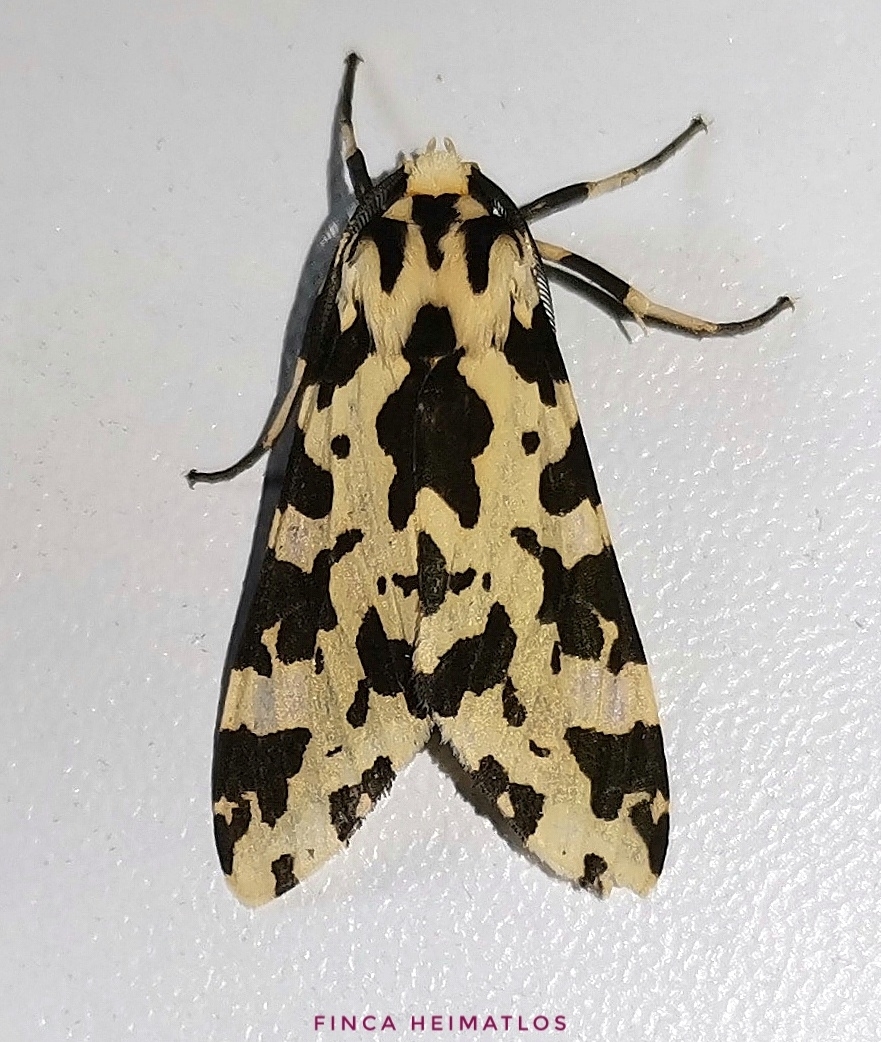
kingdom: Animalia
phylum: Arthropoda
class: Insecta
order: Lepidoptera
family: Erebidae
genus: Eucereon
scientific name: Eucereon consorta
